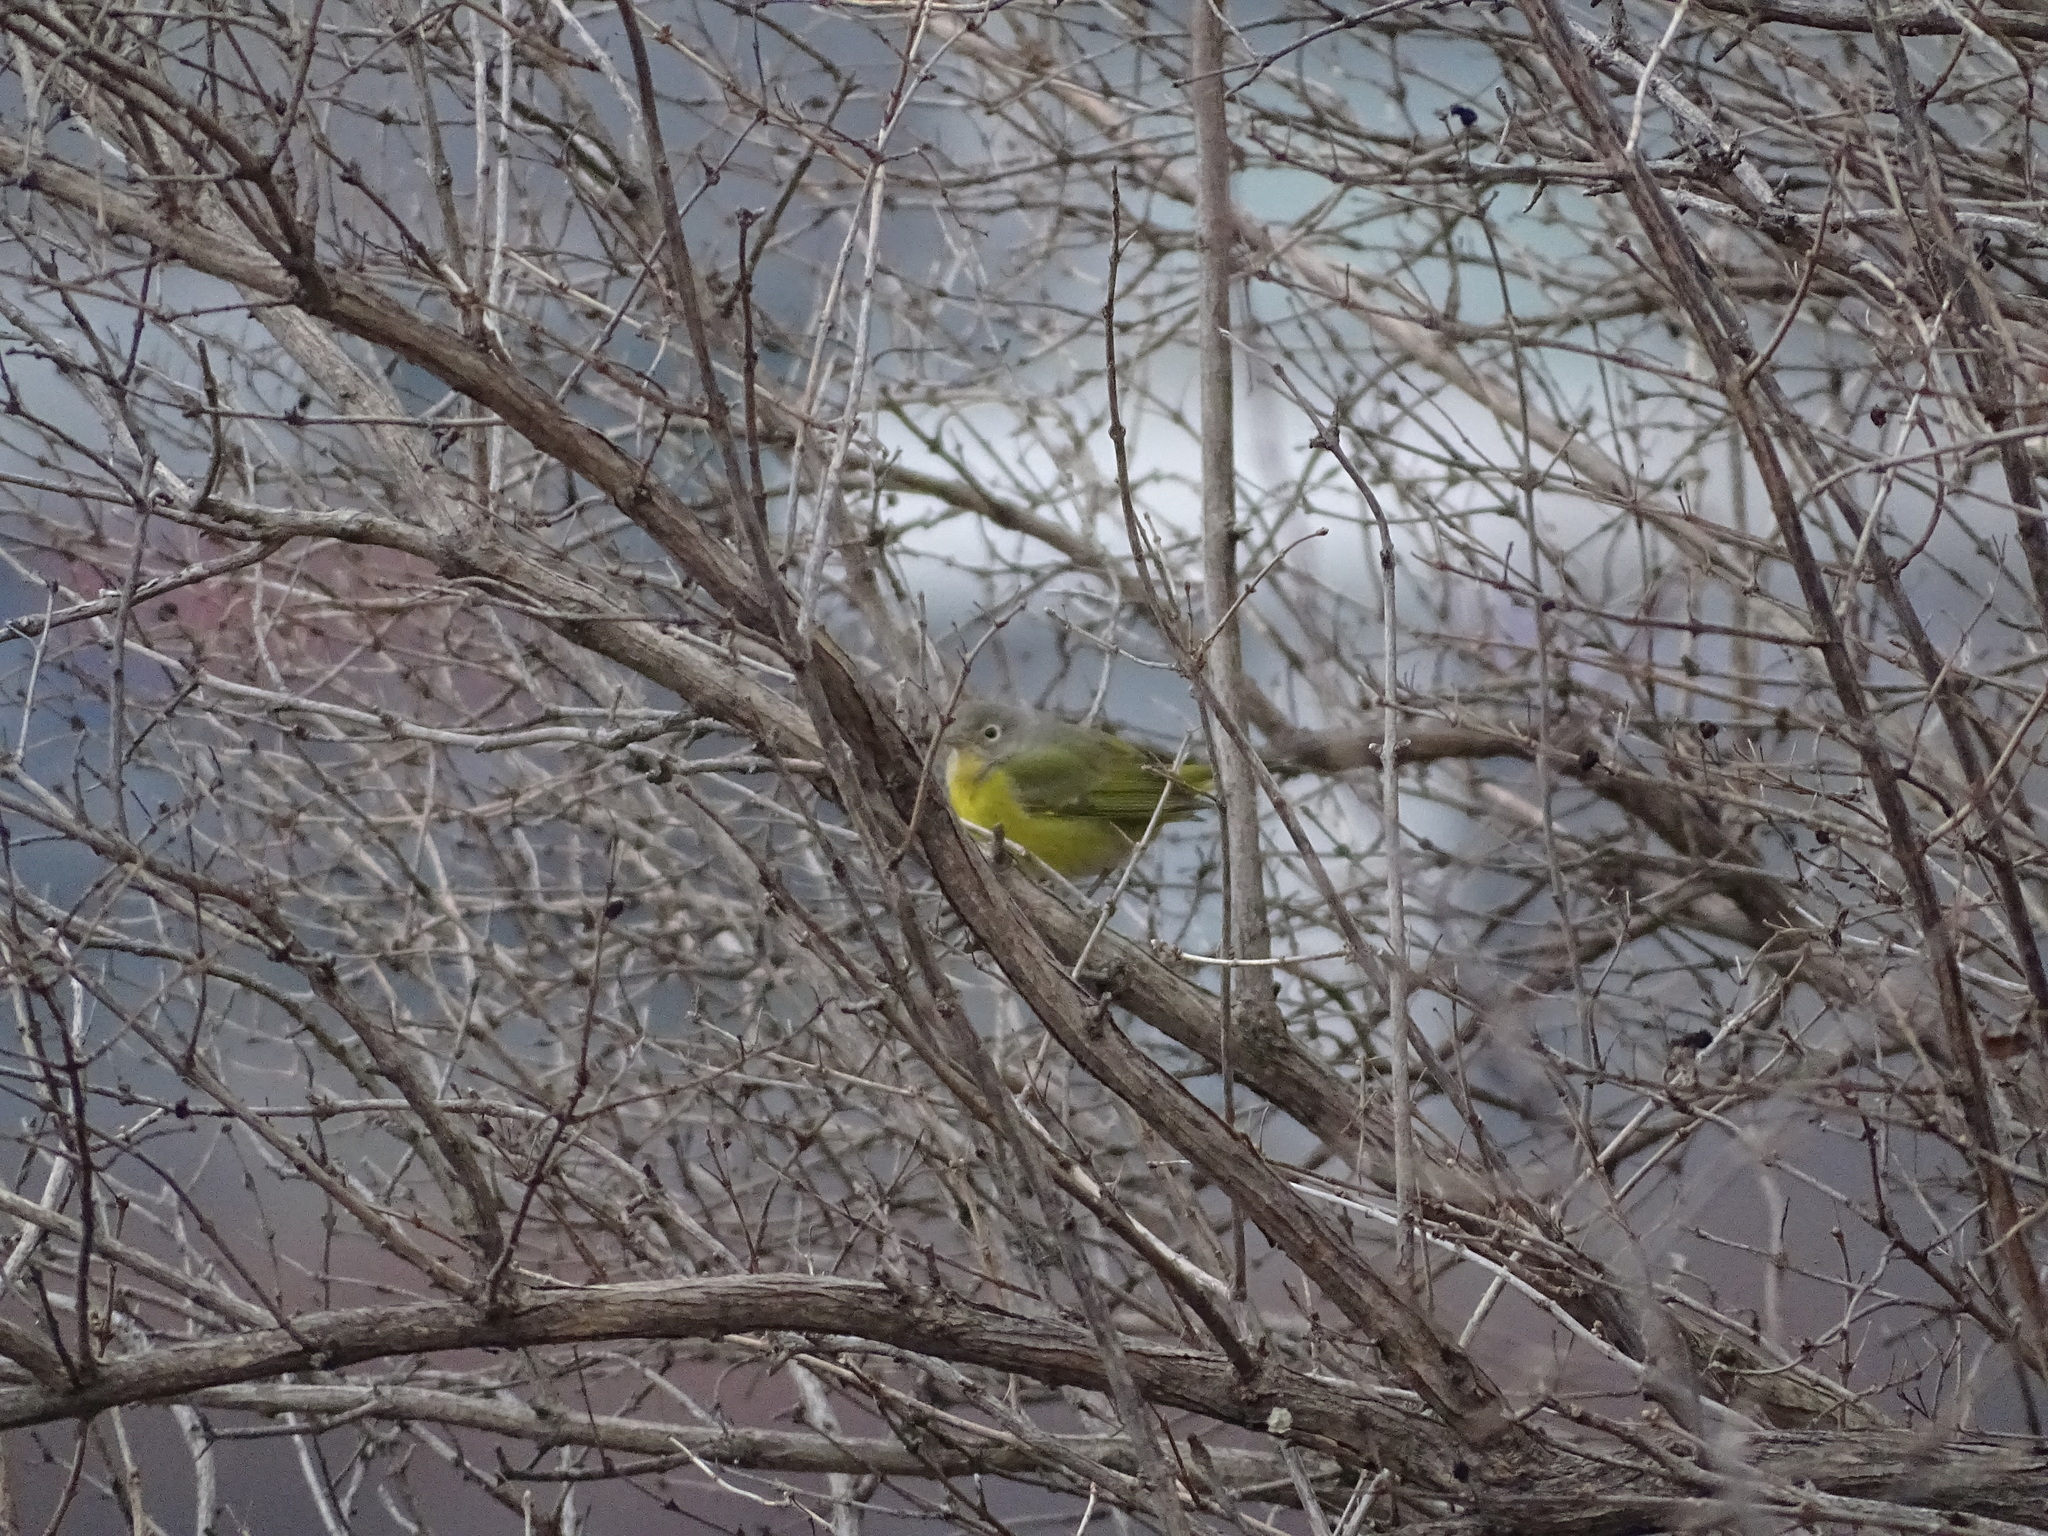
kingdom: Animalia
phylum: Chordata
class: Aves
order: Passeriformes
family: Parulidae
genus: Leiothlypis
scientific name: Leiothlypis ruficapilla
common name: Nashville warbler
